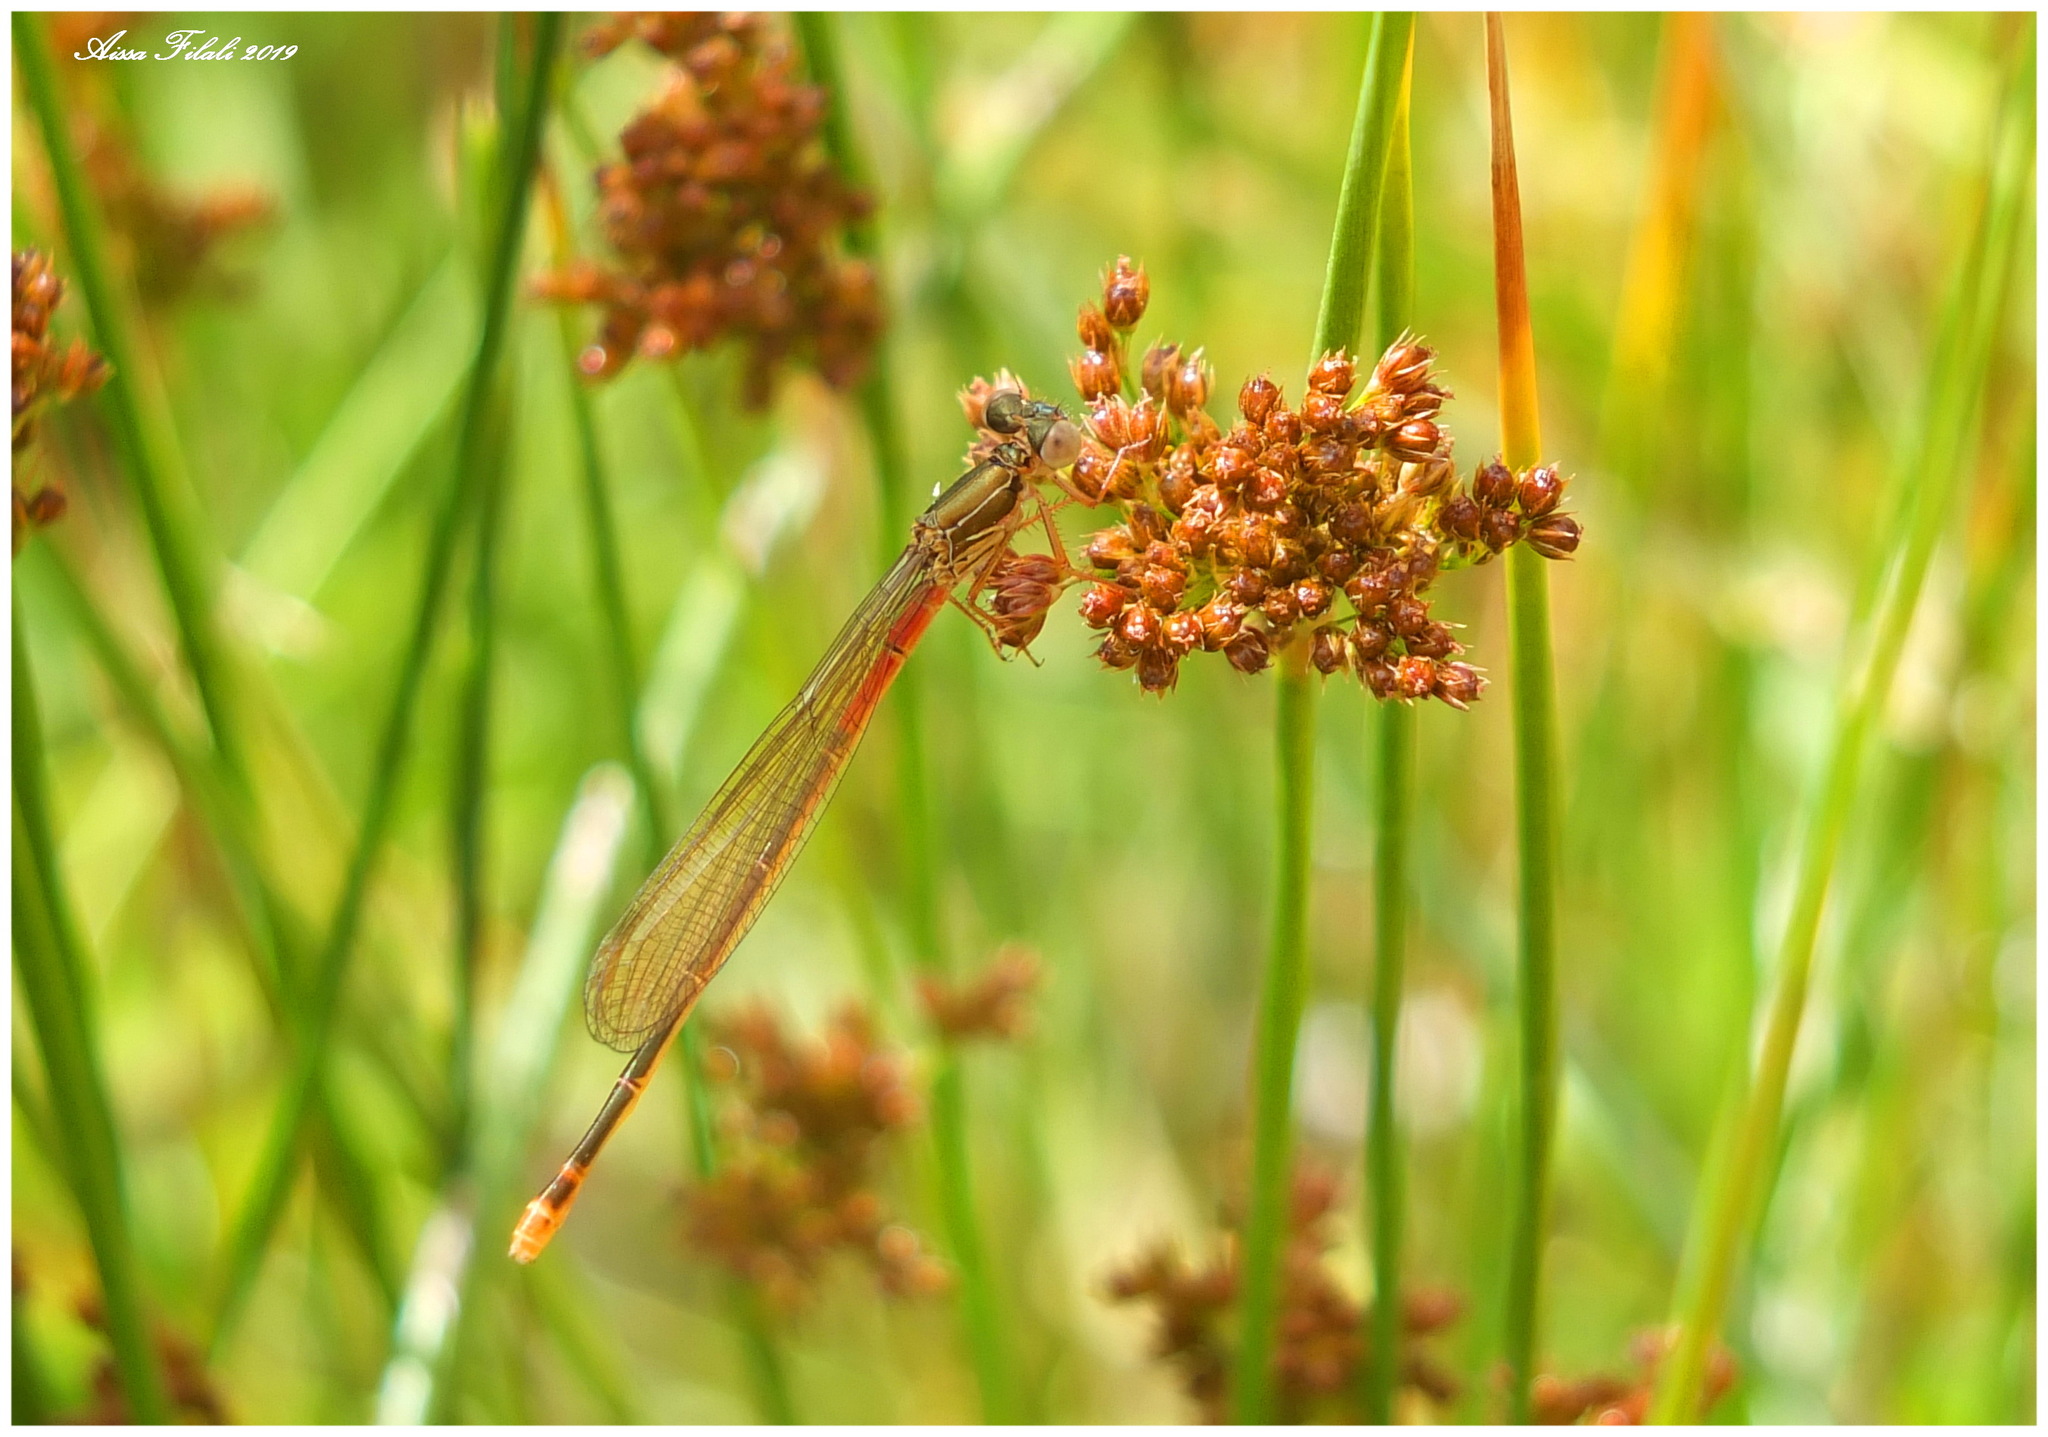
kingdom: Animalia
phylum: Arthropoda
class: Insecta
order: Odonata
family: Coenagrionidae
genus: Ceriagrion
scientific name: Ceriagrion tenellum
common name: Small red damselfly
